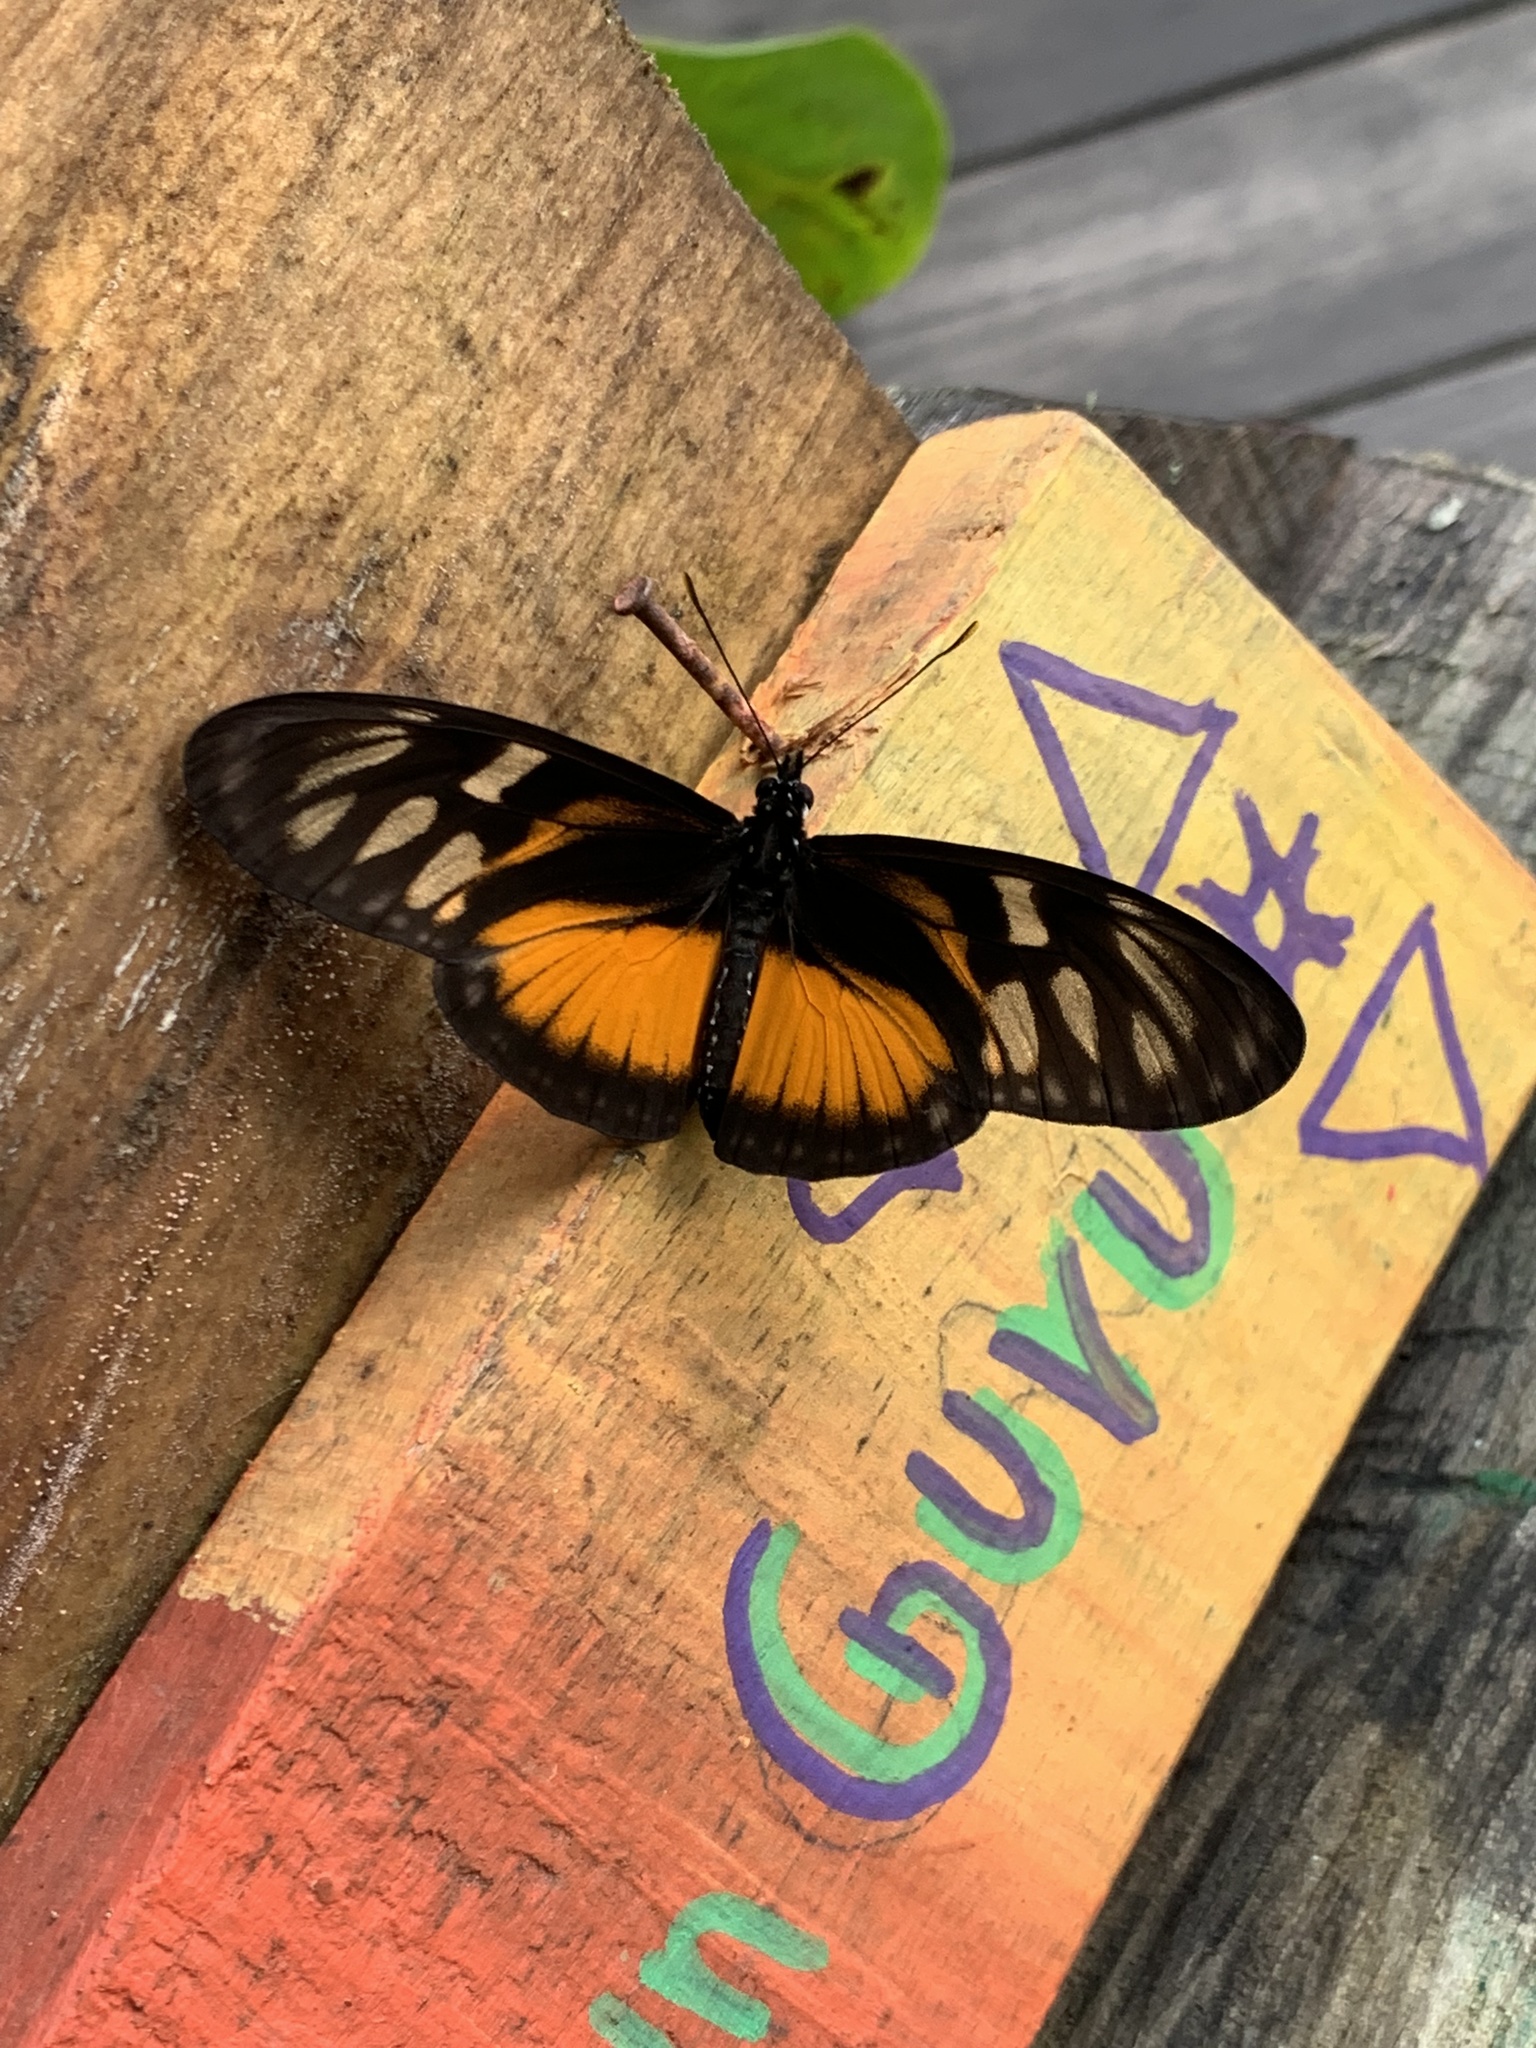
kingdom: Animalia
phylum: Arthropoda
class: Insecta
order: Lepidoptera
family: Nymphalidae
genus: Eueides
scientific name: Eueides procula
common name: Nonpassionate heliconian
